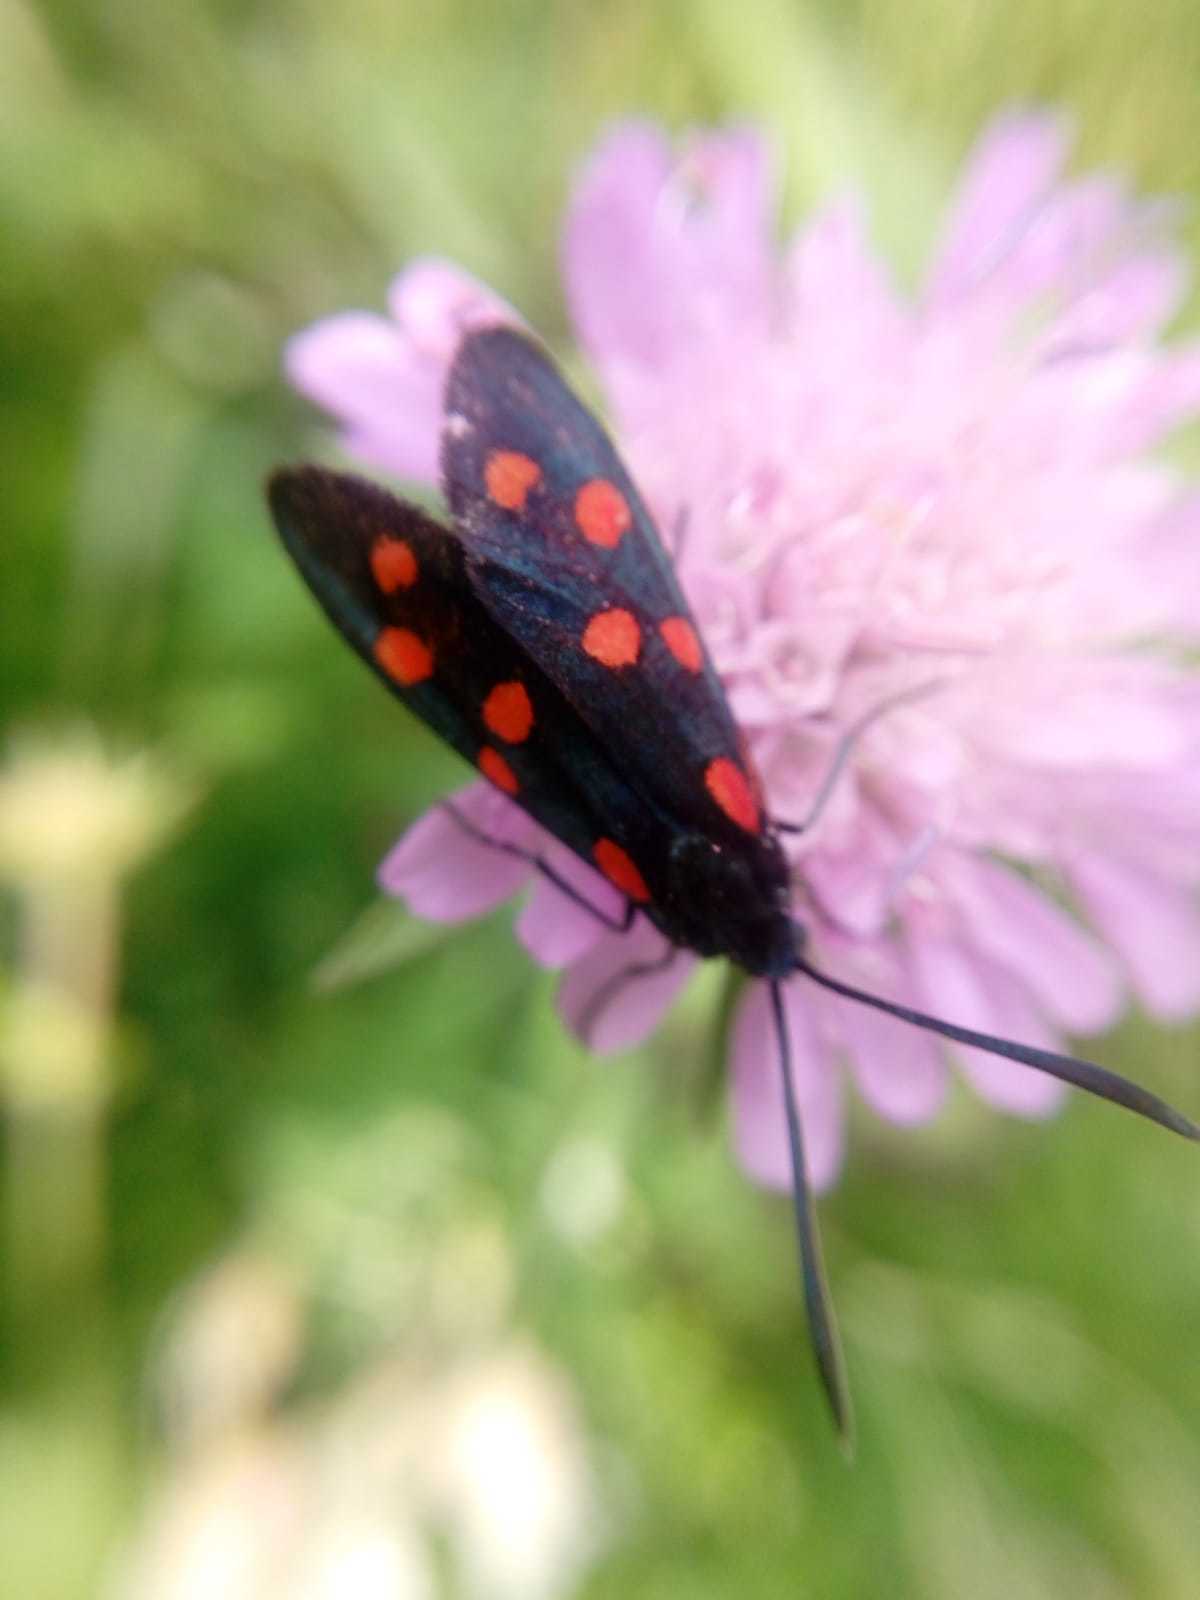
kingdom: Animalia
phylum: Arthropoda
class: Insecta
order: Lepidoptera
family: Zygaenidae
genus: Zygaena
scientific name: Zygaena transalpina
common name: Southern six spot burnet
